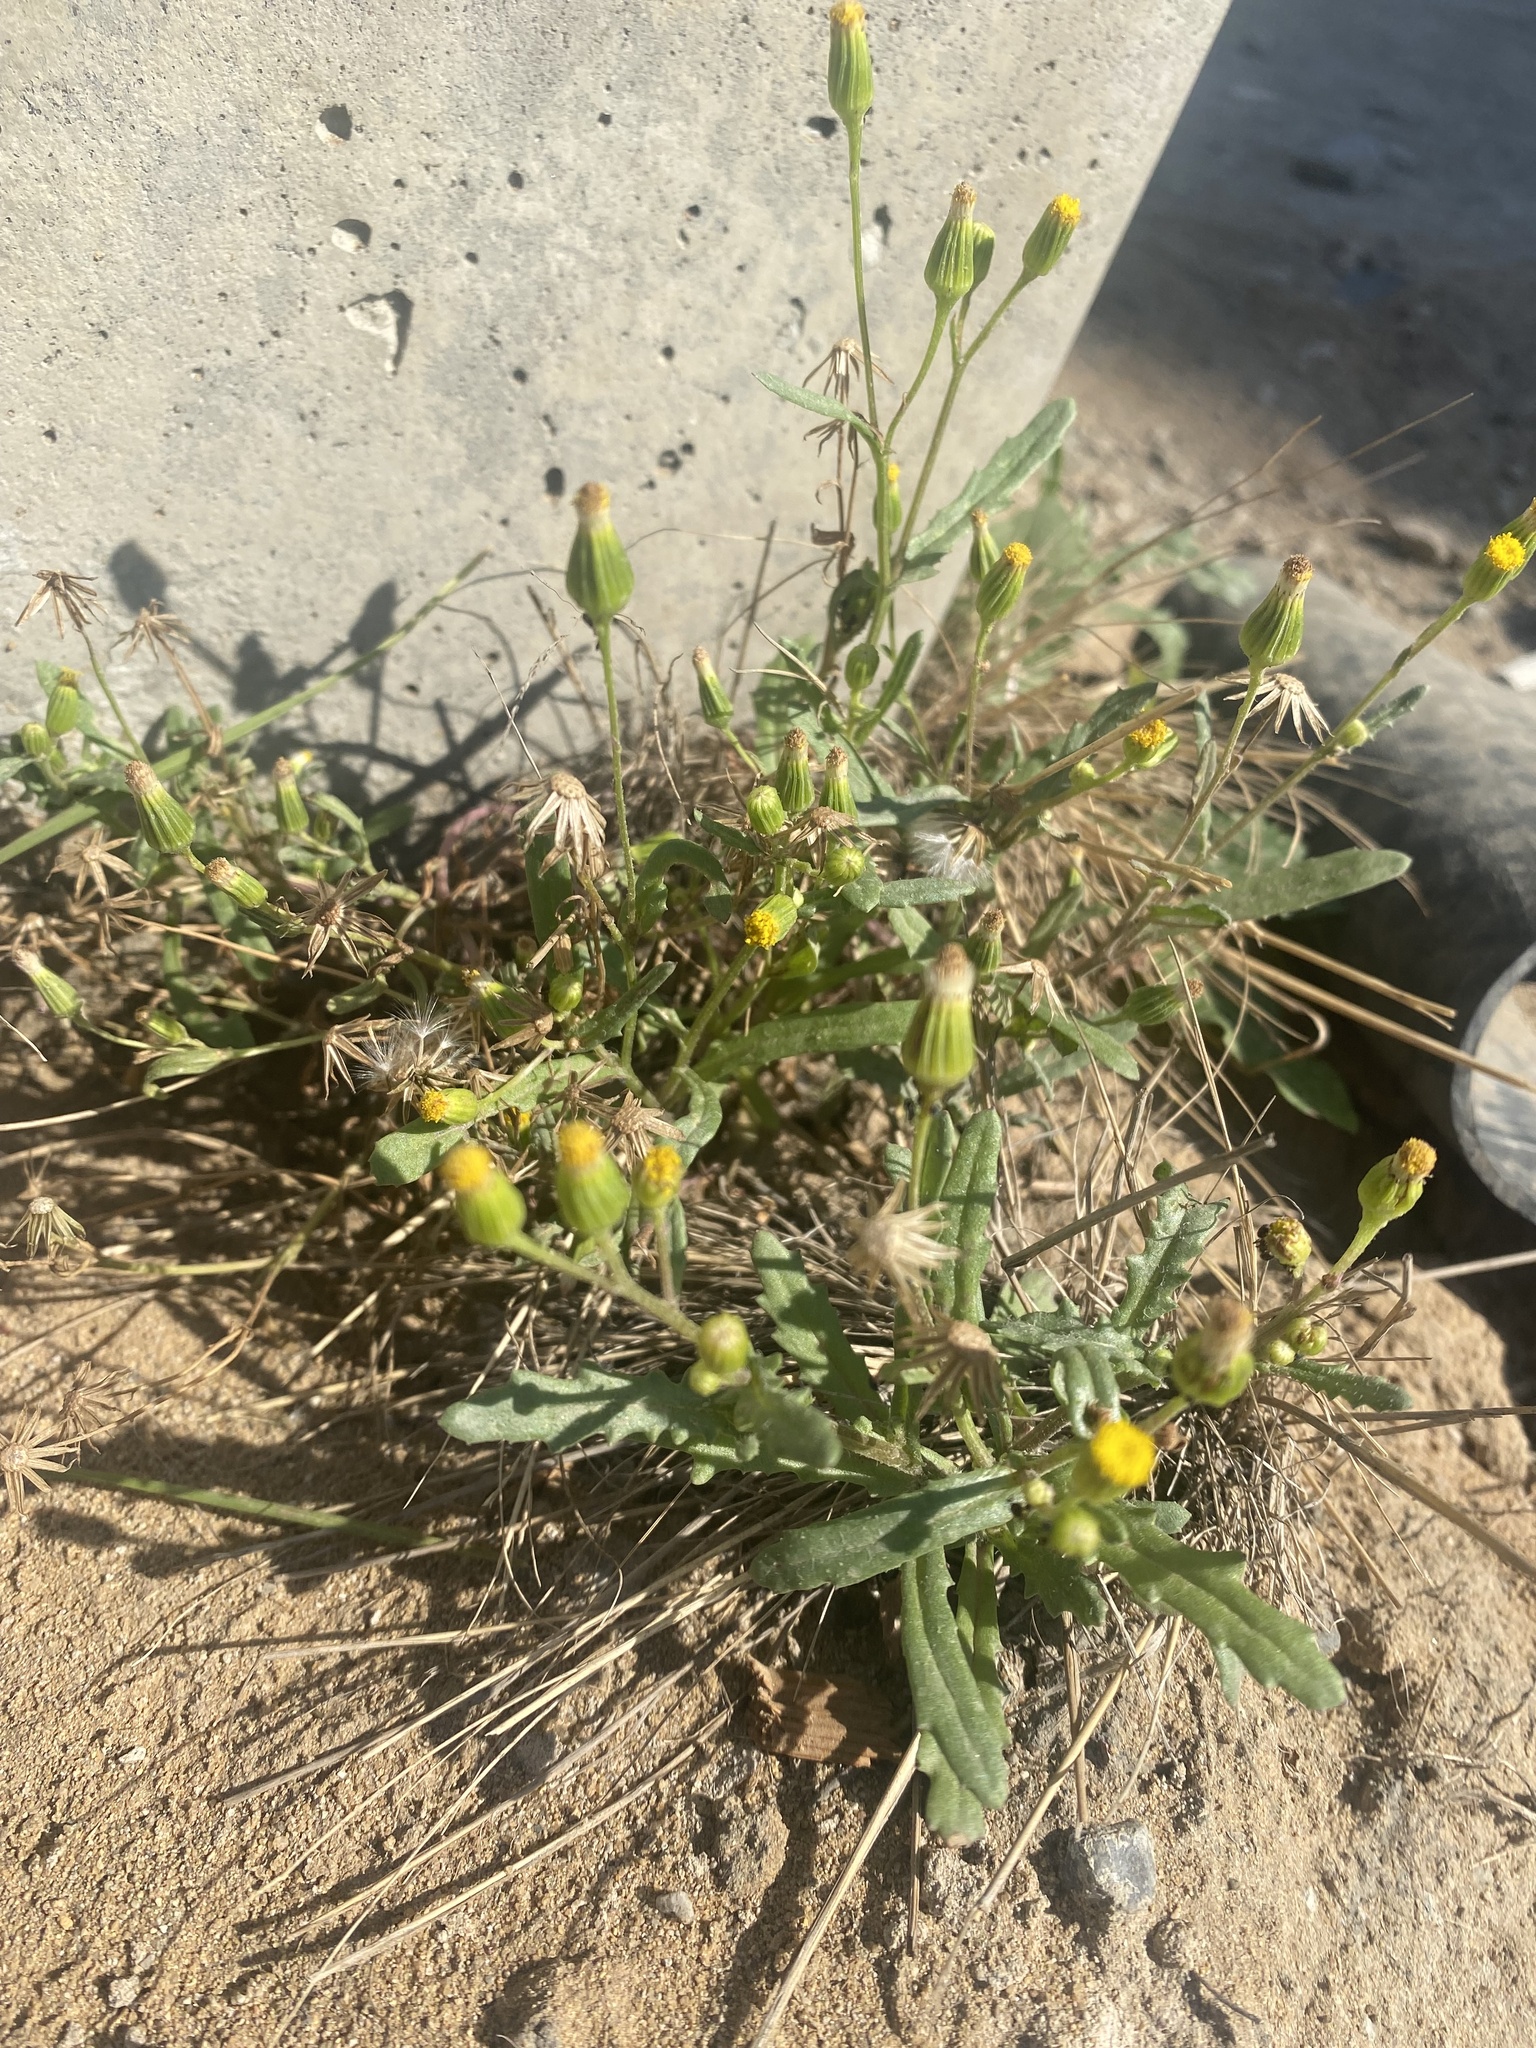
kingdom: Plantae
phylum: Tracheophyta
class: Magnoliopsida
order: Asterales
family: Asteraceae
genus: Senecio
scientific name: Senecio dubitabilis
